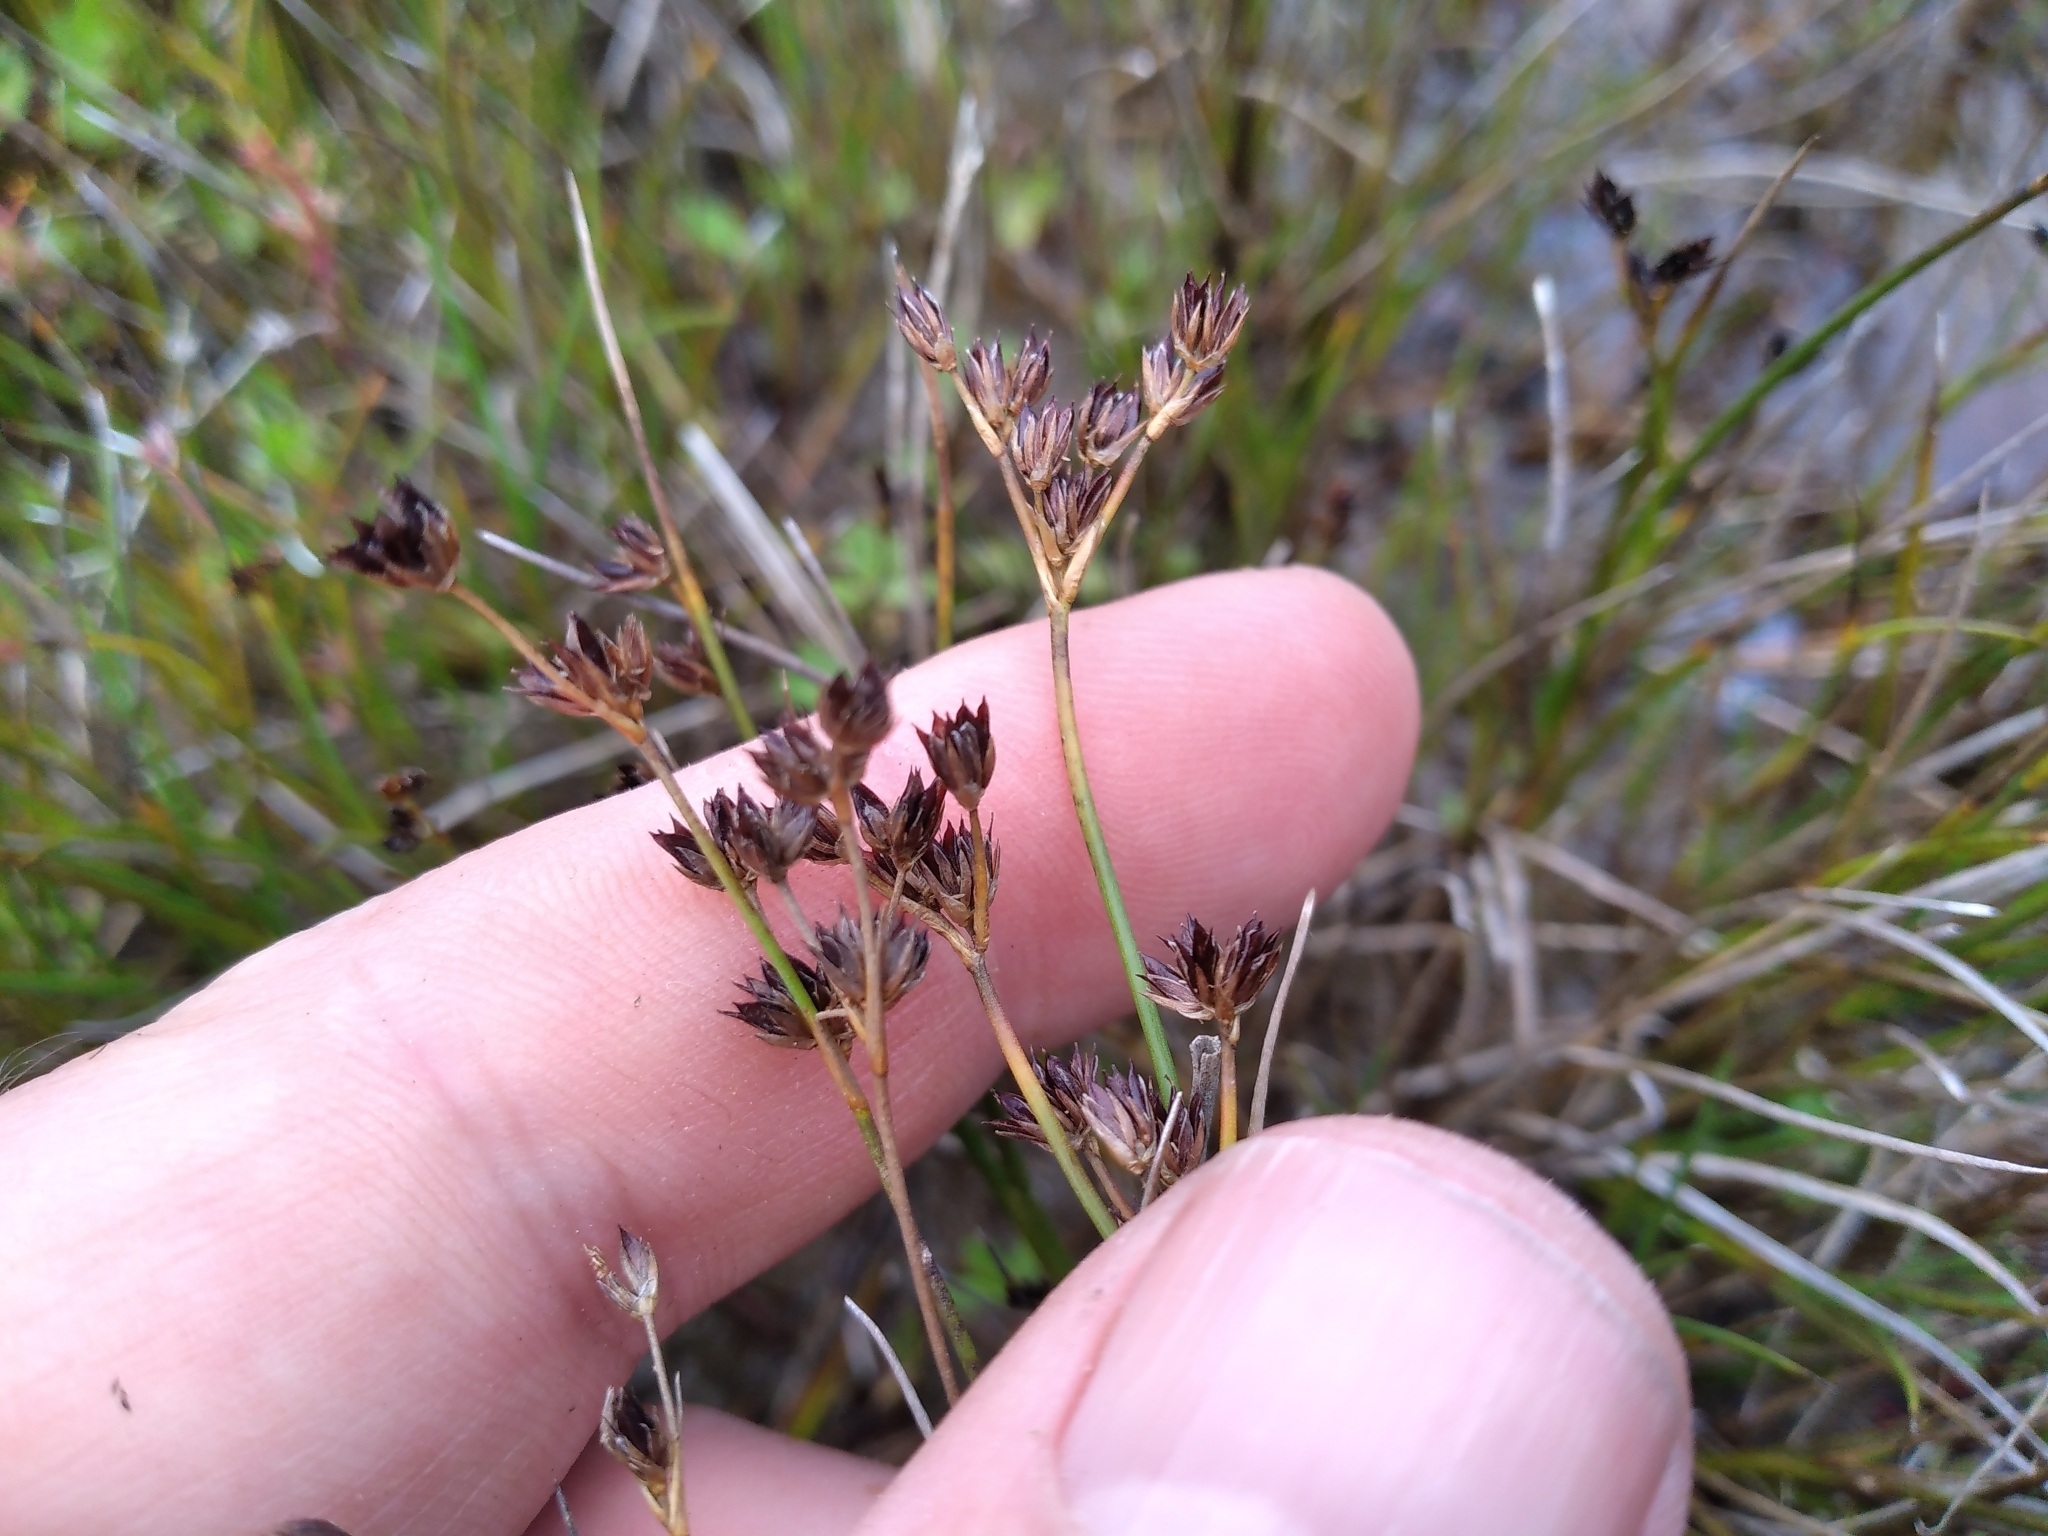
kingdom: Plantae
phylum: Tracheophyta
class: Liliopsida
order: Poales
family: Juncaceae
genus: Juncus
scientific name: Juncus articulatus
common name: Jointed rush
